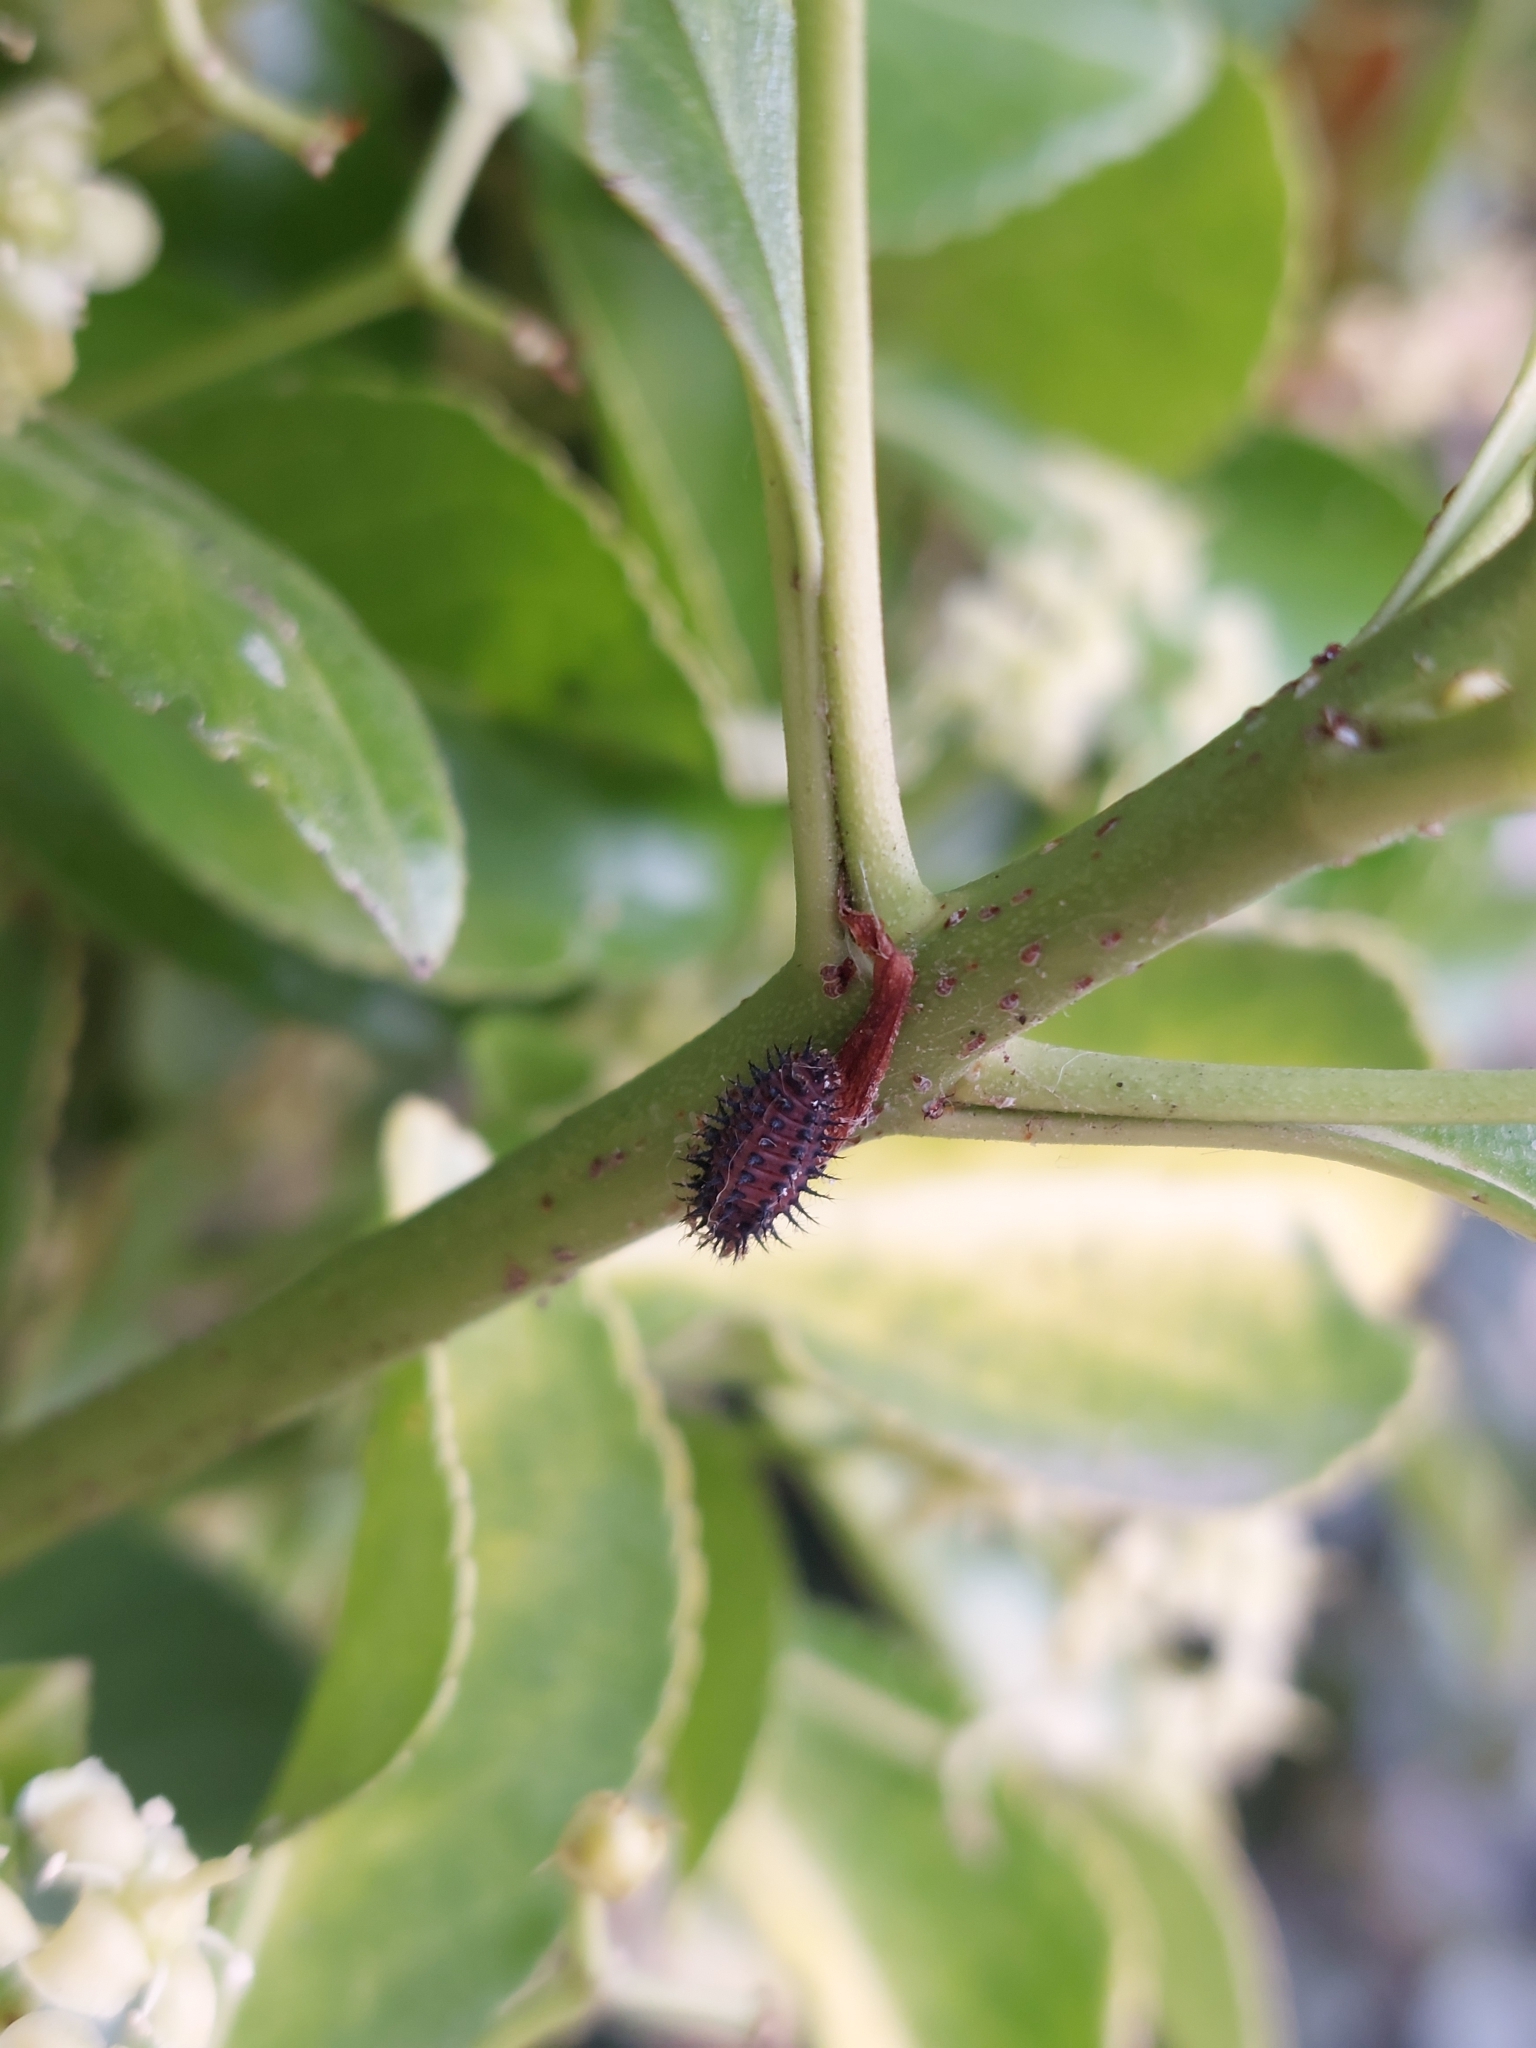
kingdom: Animalia
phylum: Arthropoda
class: Insecta
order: Coleoptera
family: Coccinellidae
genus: Chilocorus
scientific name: Chilocorus renipustulatus
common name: Kidney-spot ladybird
